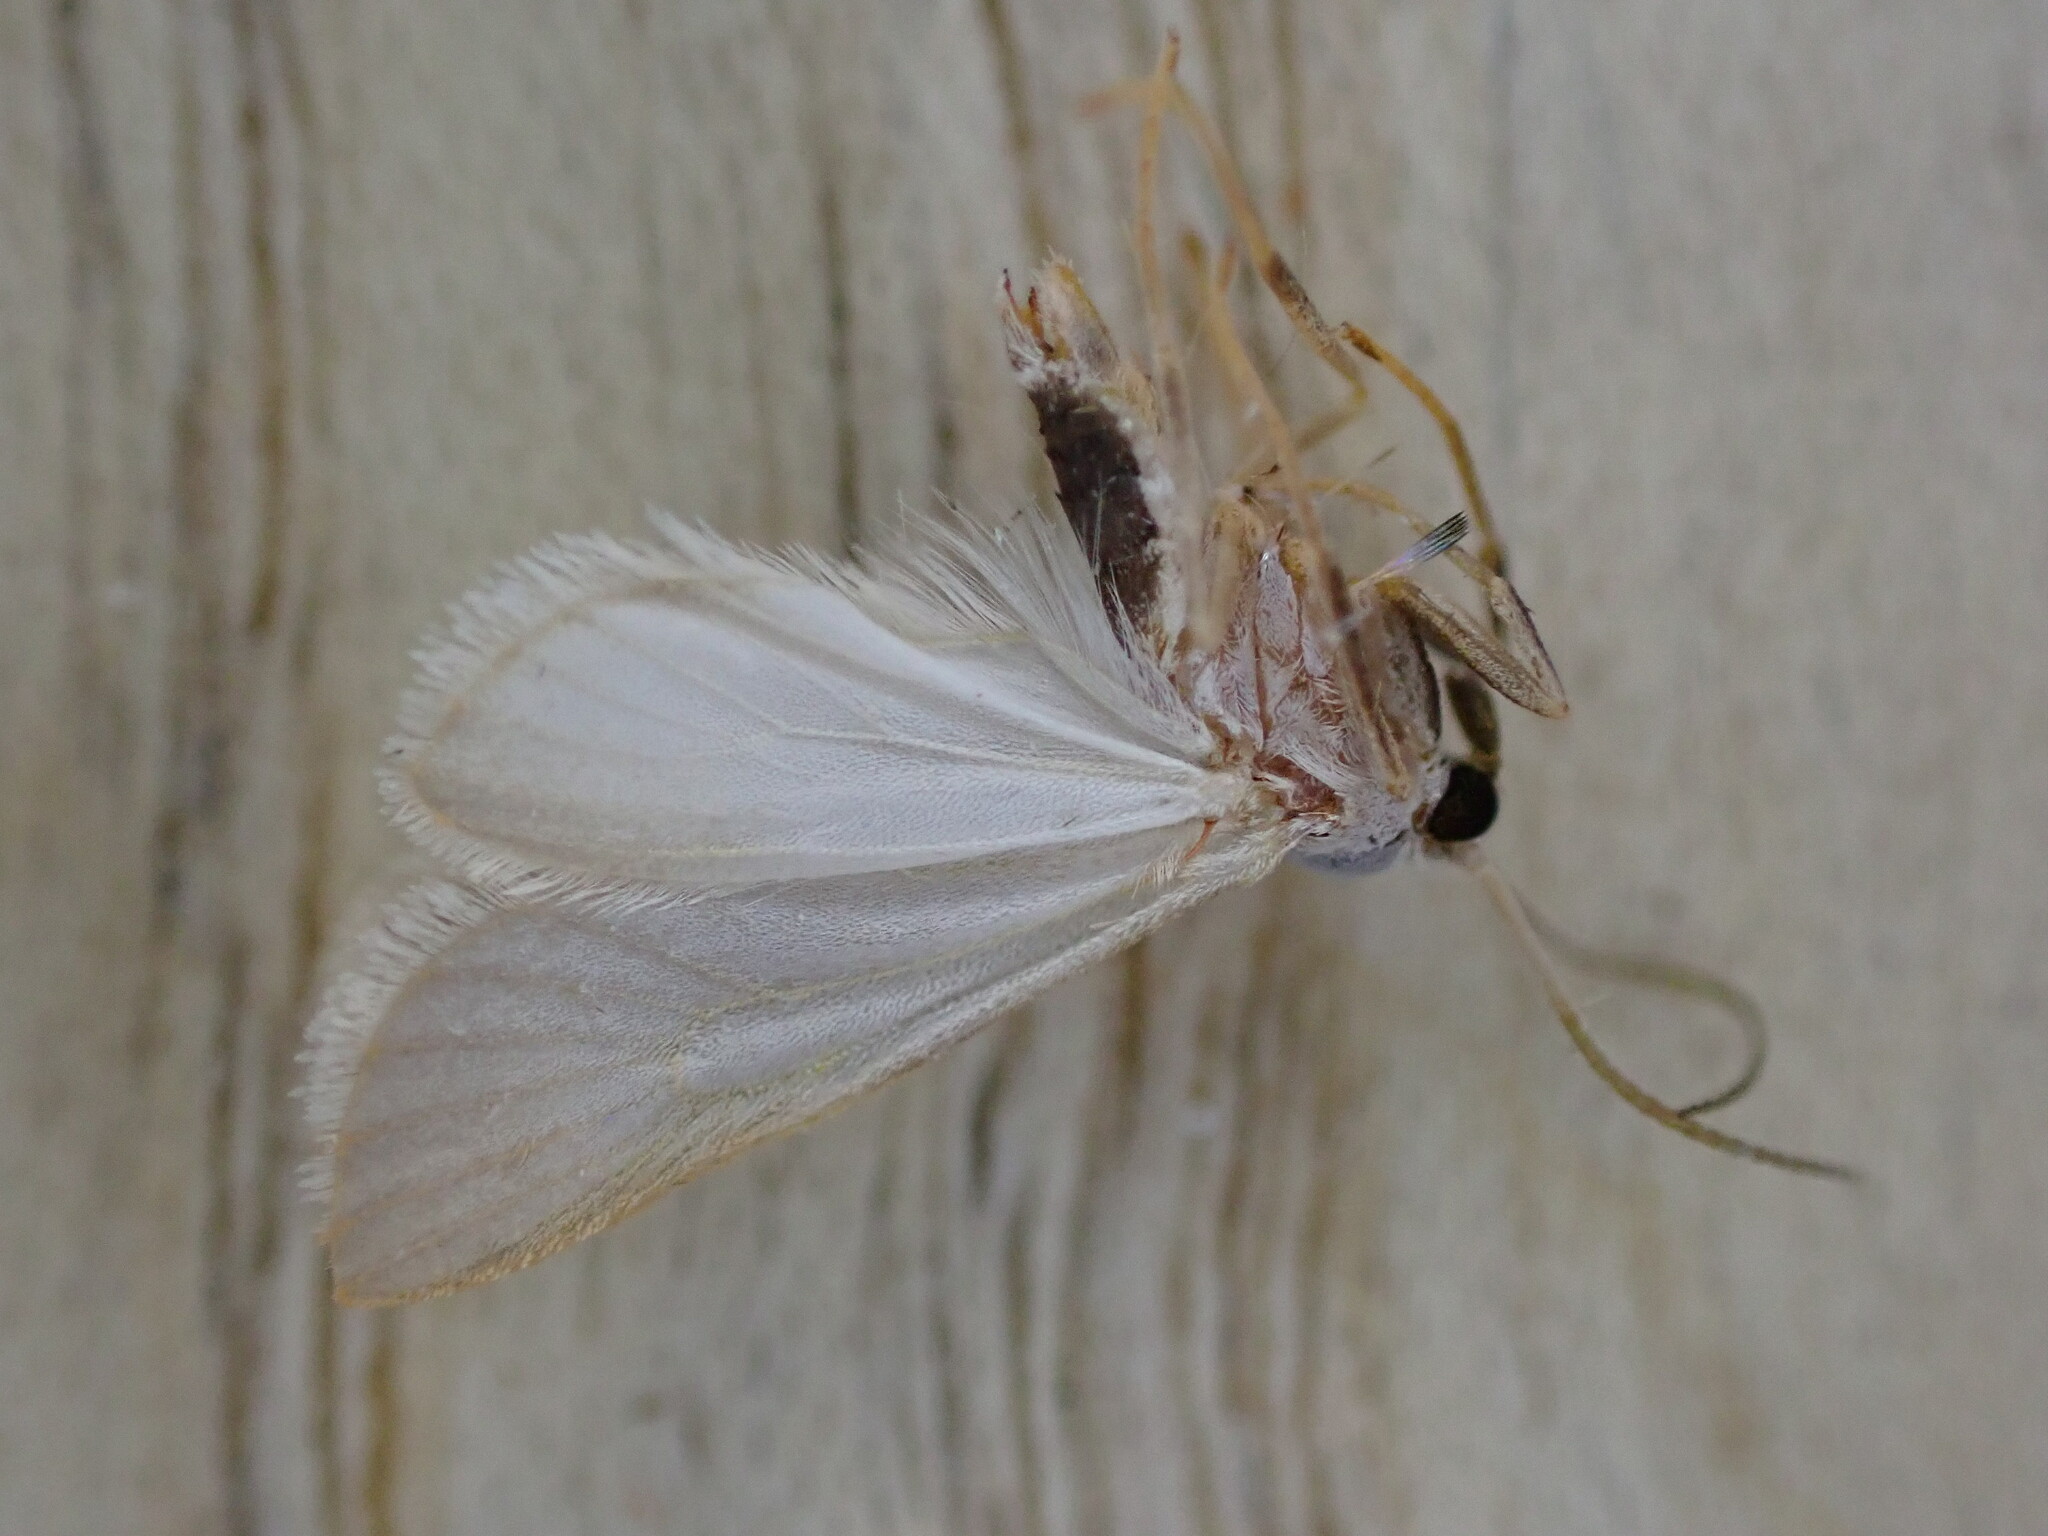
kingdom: Animalia
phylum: Arthropoda
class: Insecta
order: Lepidoptera
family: Crambidae
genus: Acentria
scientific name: Acentria ephemerella
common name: European water moth
